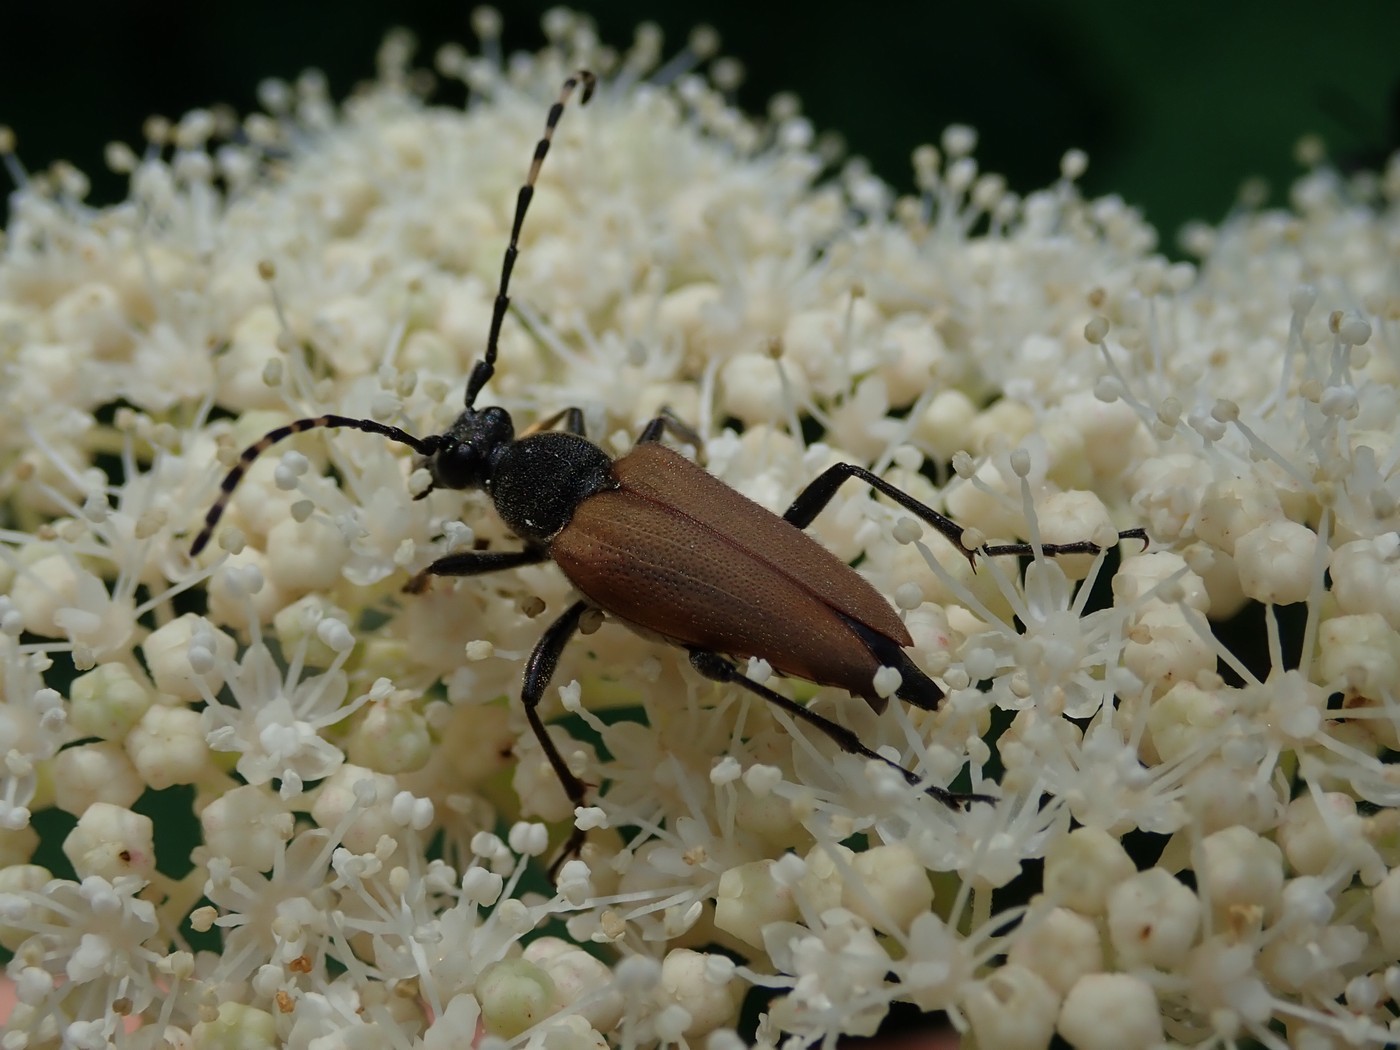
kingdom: Animalia
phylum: Arthropoda
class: Insecta
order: Coleoptera
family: Cerambycidae
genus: Brachyleptura
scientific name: Brachyleptura rubrica
